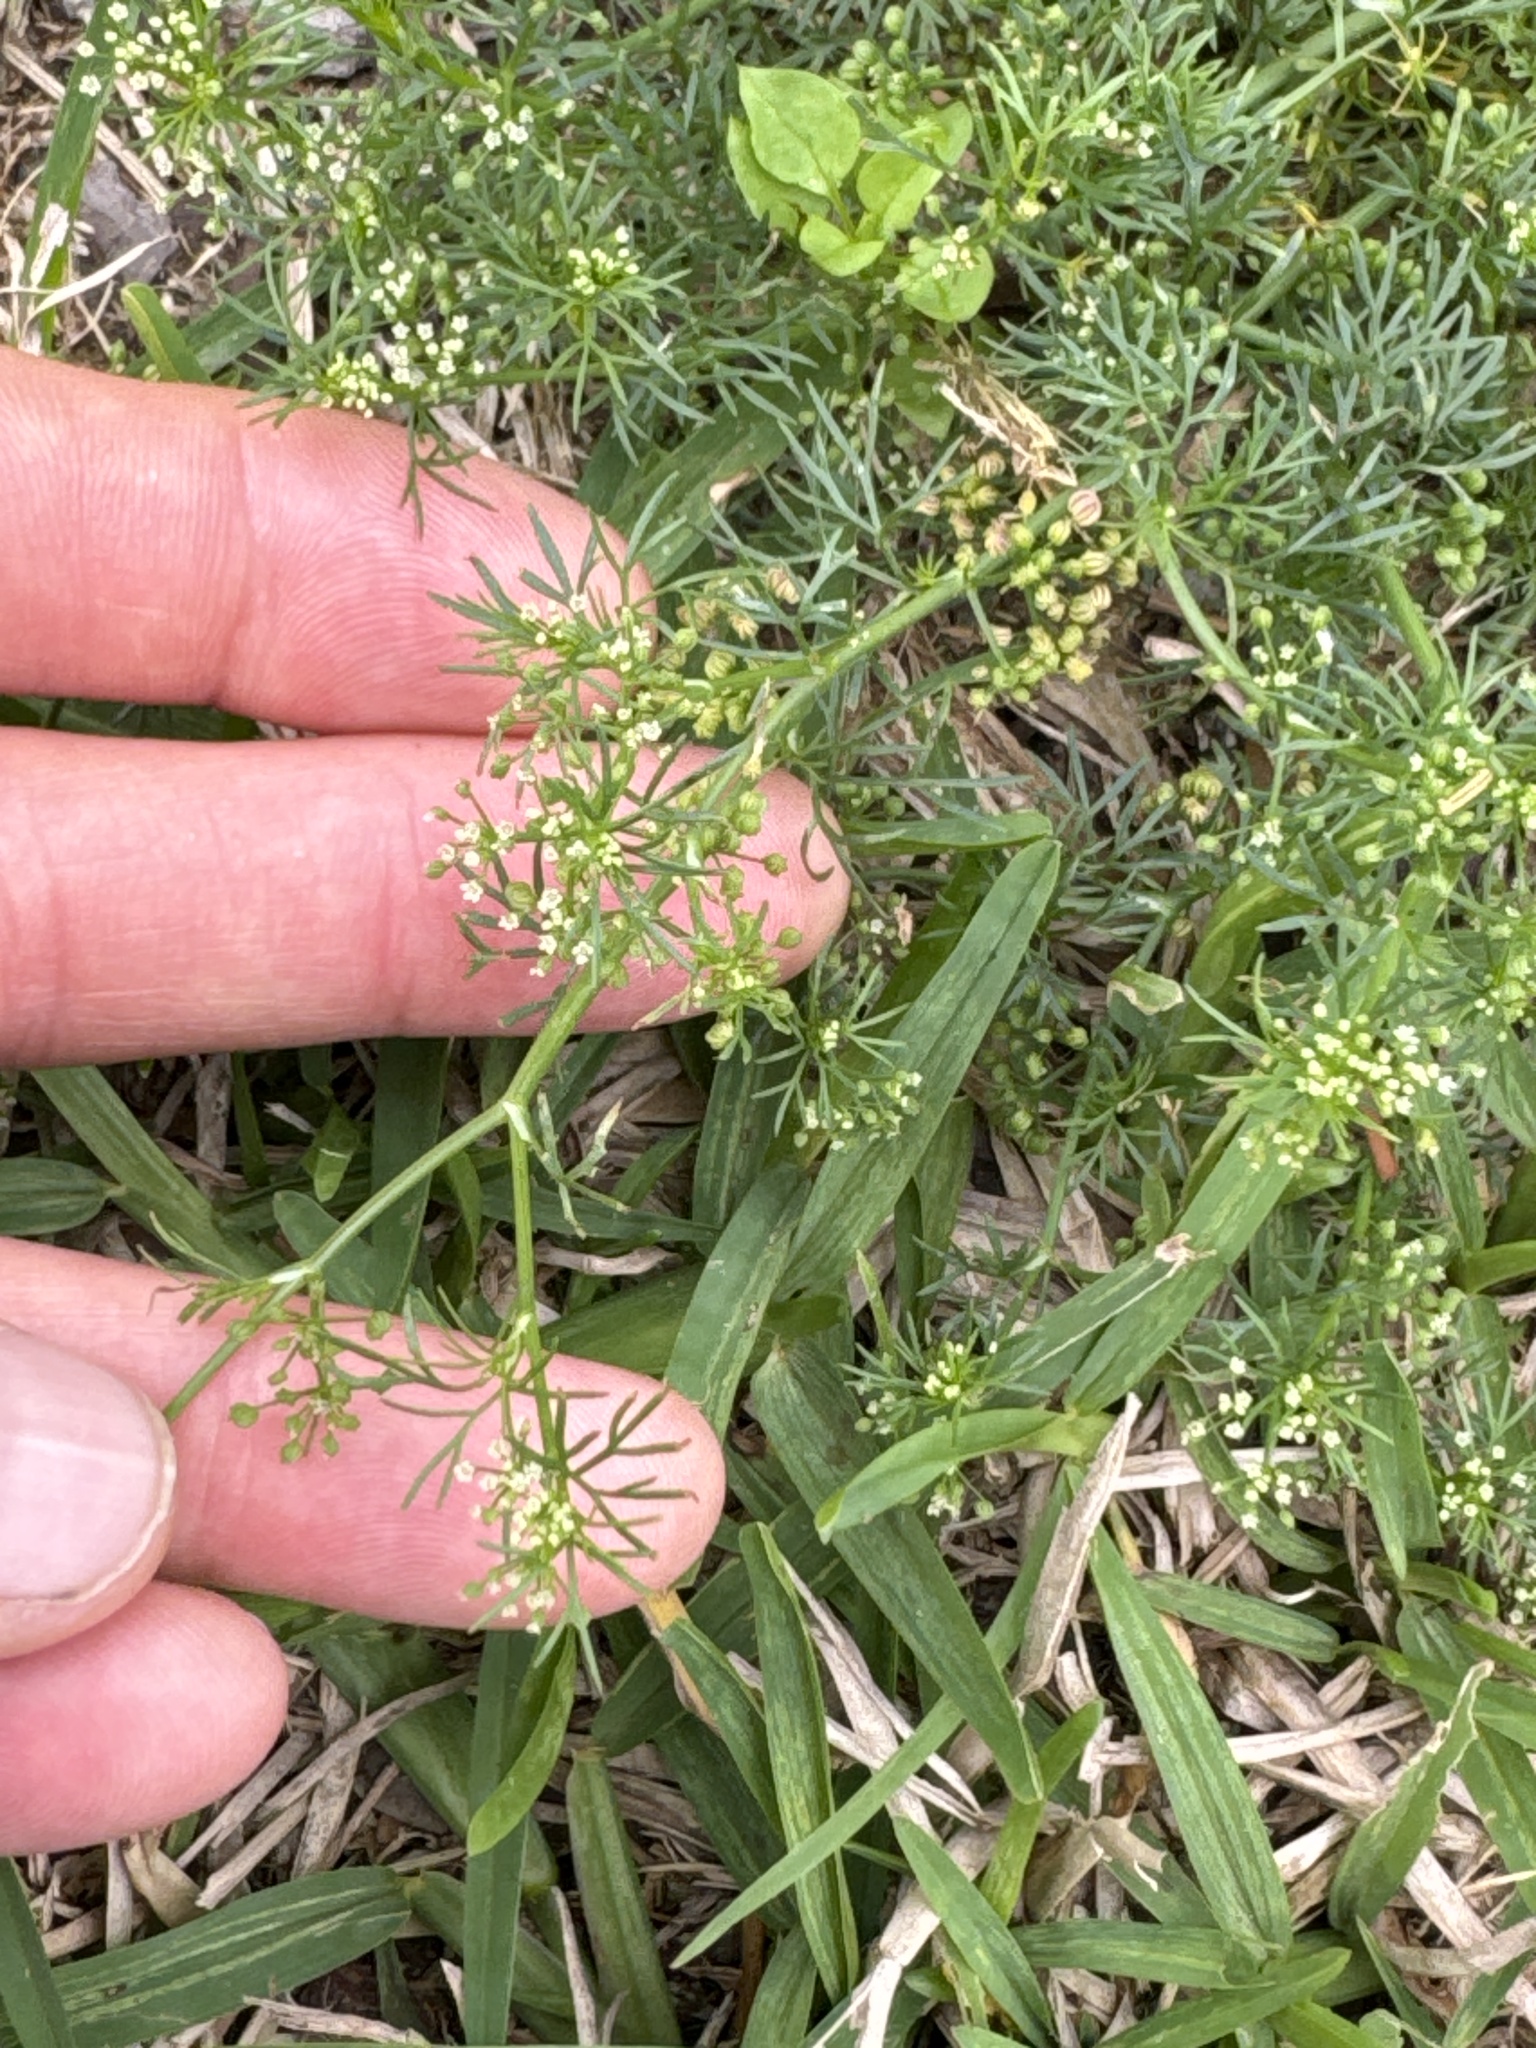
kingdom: Plantae
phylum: Tracheophyta
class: Magnoliopsida
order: Apiales
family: Apiaceae
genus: Cyclospermum
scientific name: Cyclospermum leptophyllum
